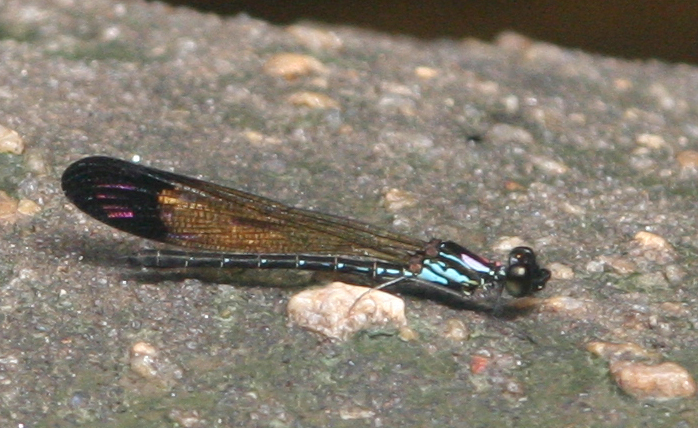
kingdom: Animalia
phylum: Arthropoda
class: Insecta
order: Odonata
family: Chlorocyphidae
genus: Heliocypha
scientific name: Heliocypha biforata
